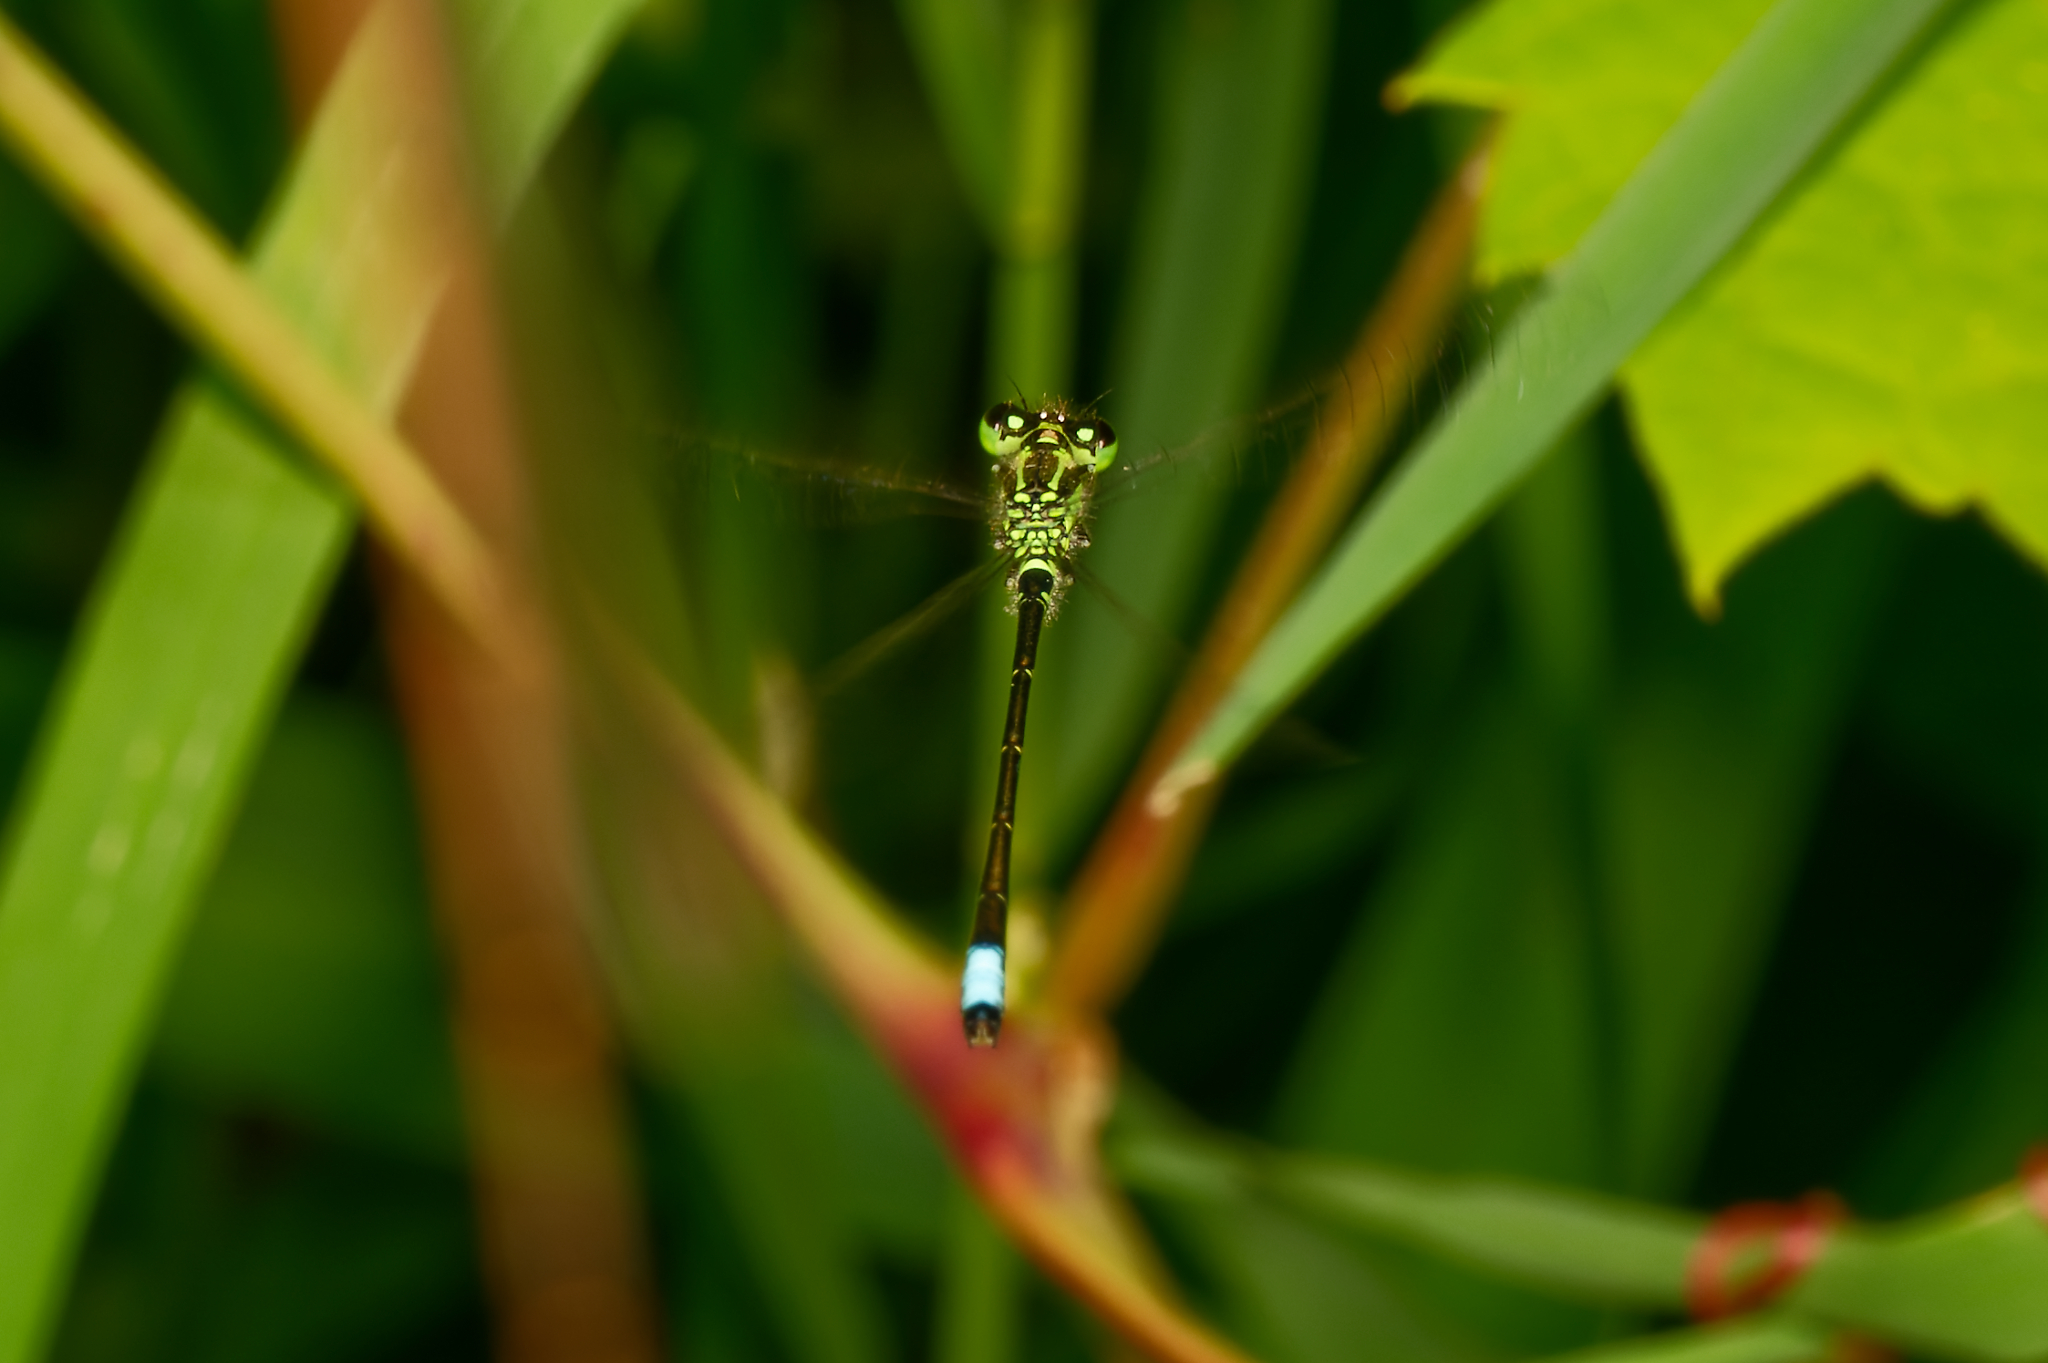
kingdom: Animalia
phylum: Arthropoda
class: Insecta
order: Odonata
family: Coenagrionidae
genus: Ischnura
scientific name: Ischnura verticalis
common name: Eastern forktail
